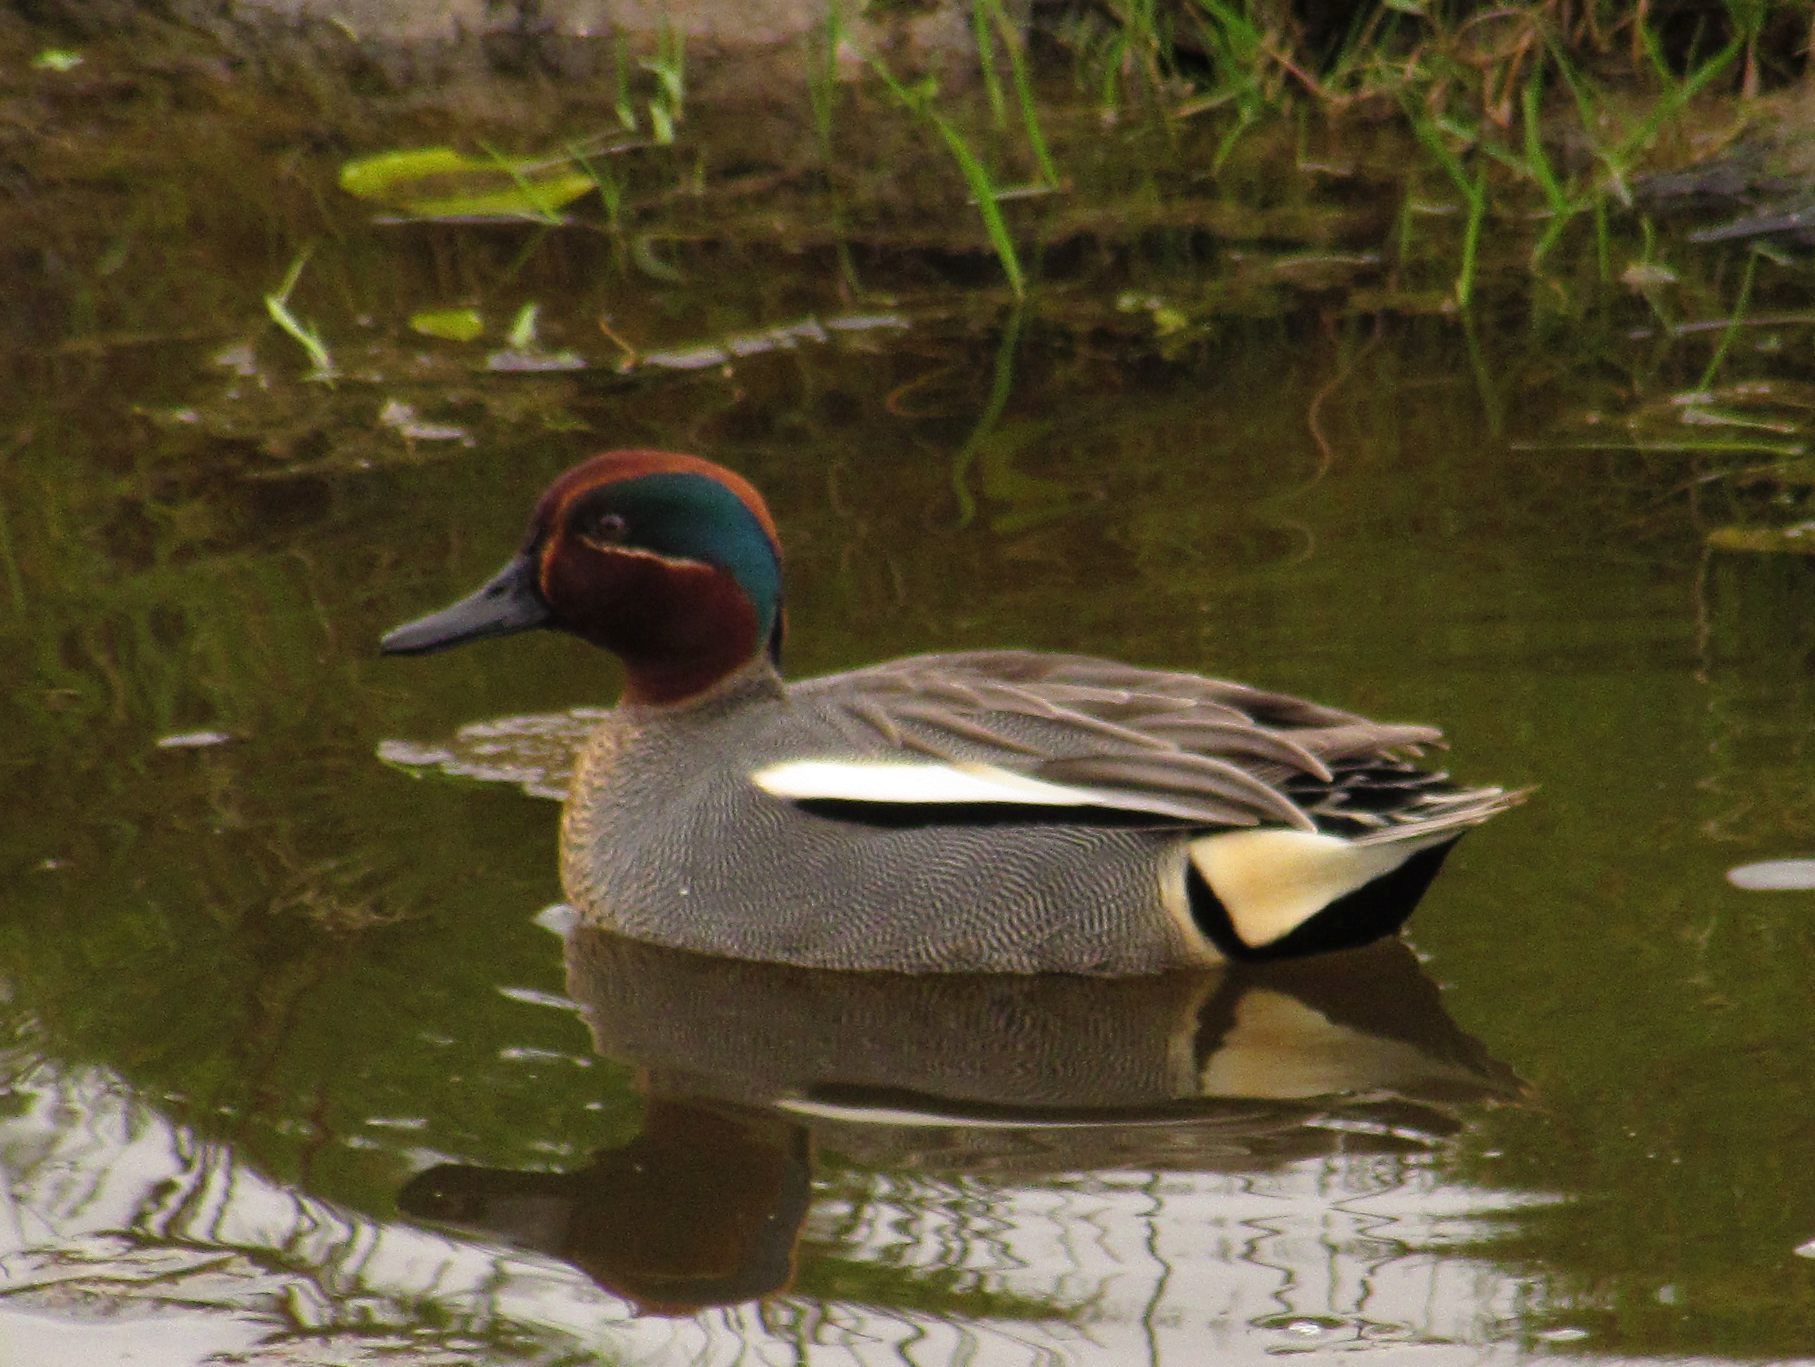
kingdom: Animalia
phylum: Chordata
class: Aves
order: Anseriformes
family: Anatidae
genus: Anas
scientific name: Anas crecca
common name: Eurasian teal
